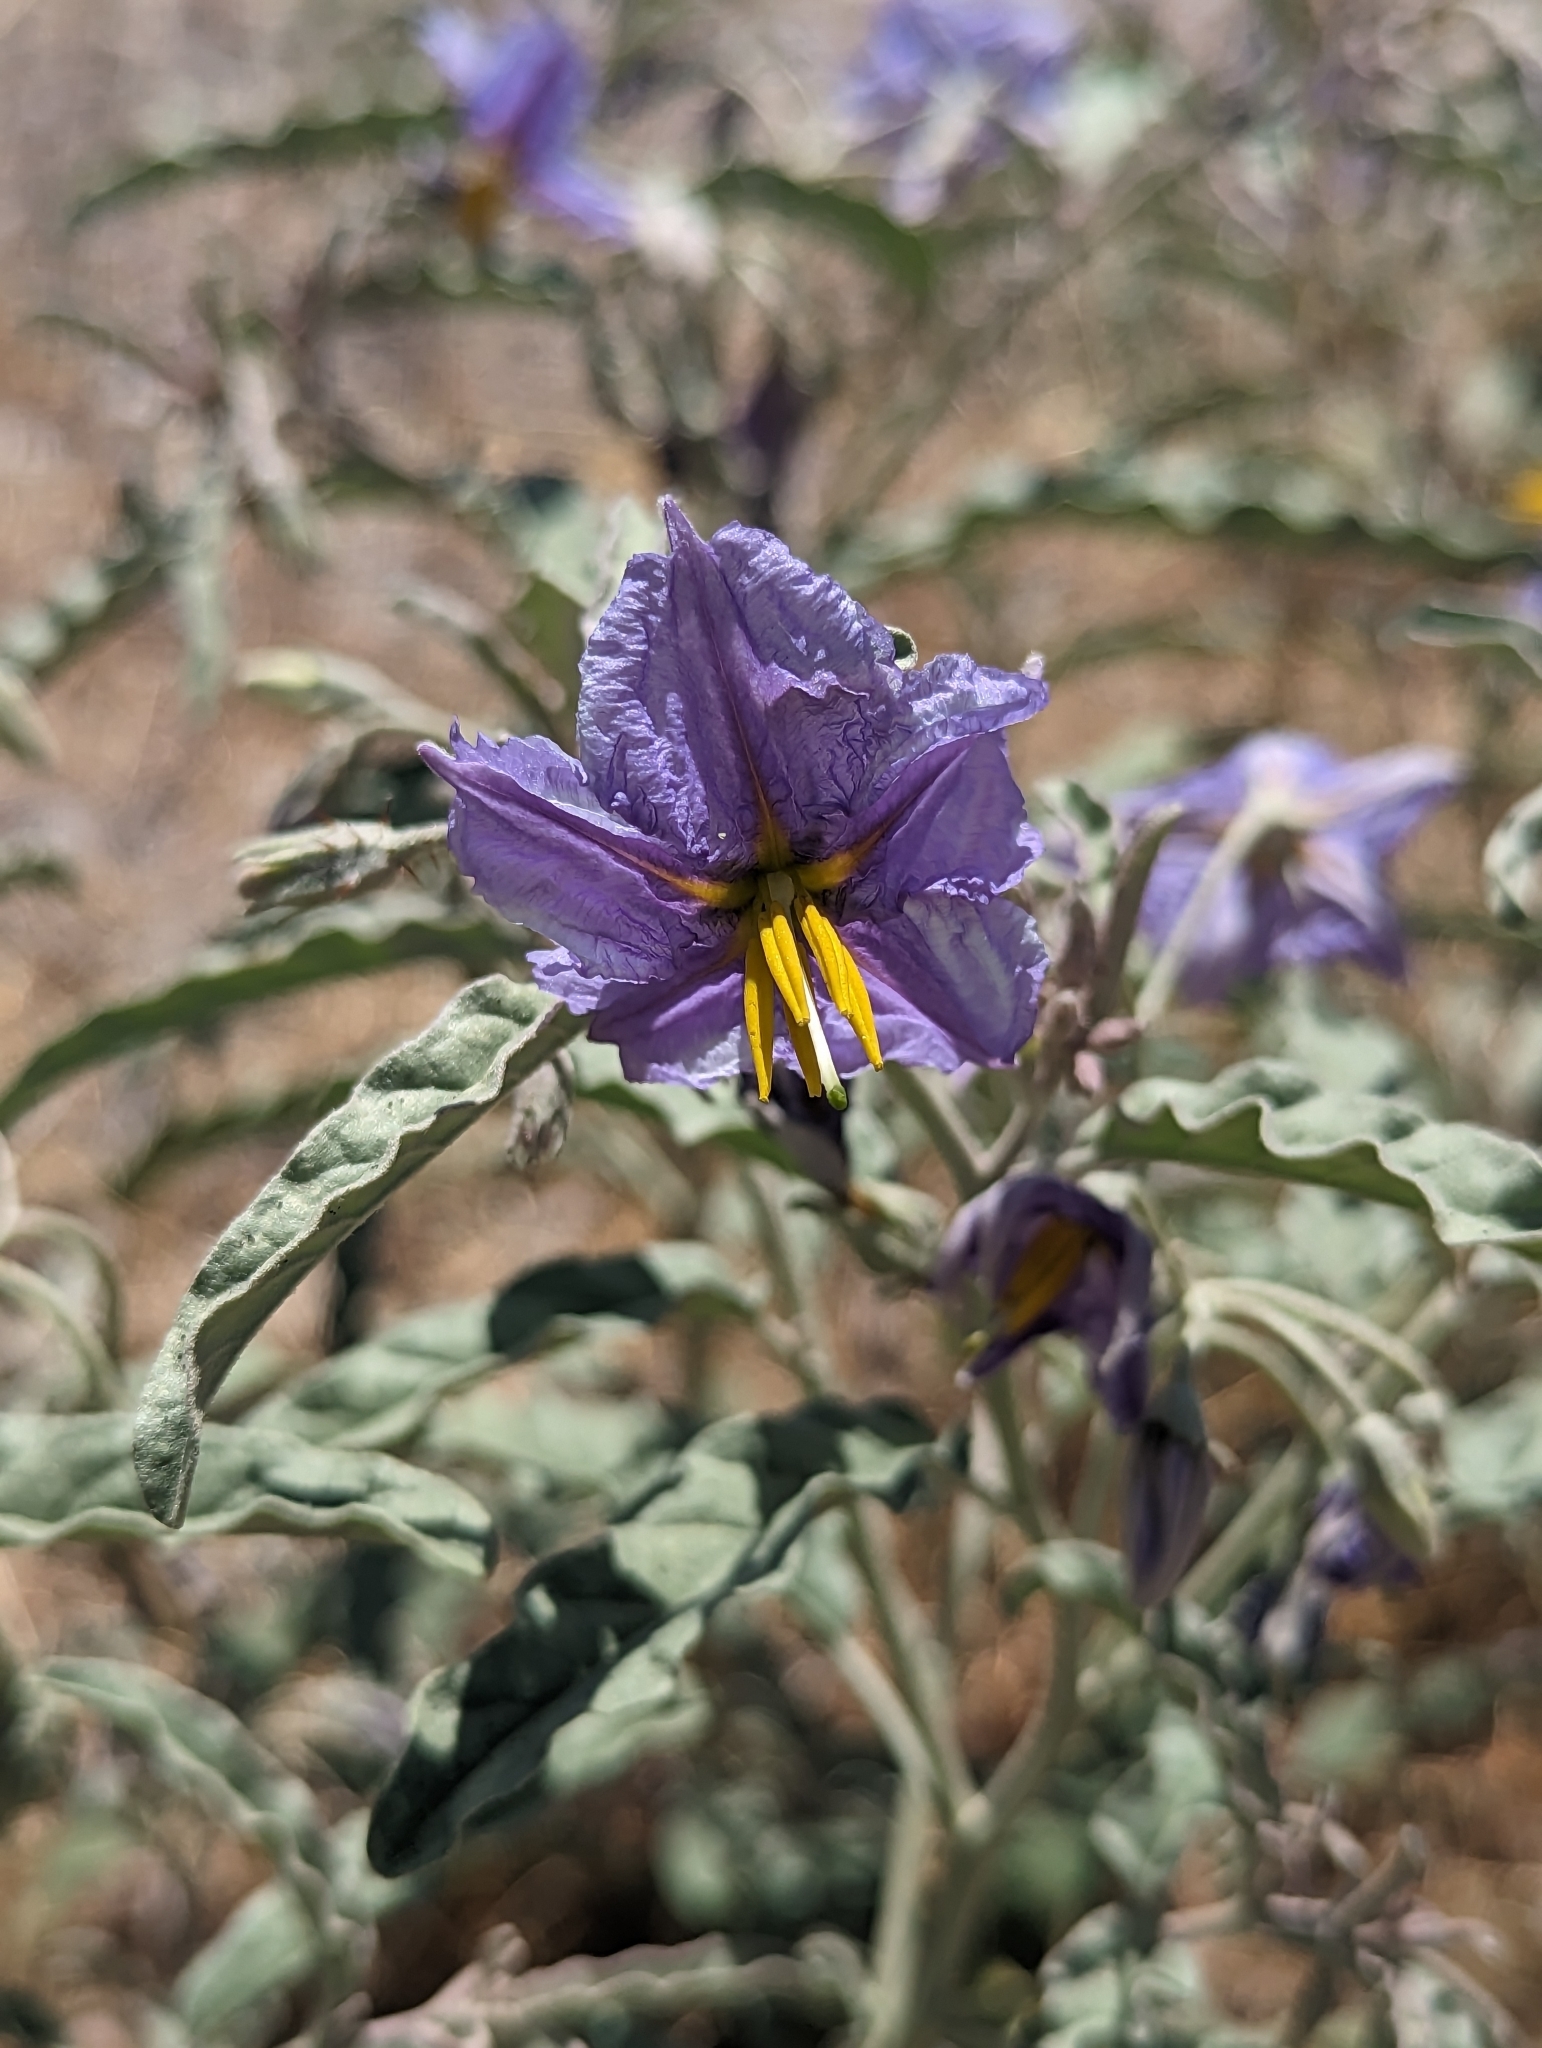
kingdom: Plantae
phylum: Tracheophyta
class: Magnoliopsida
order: Solanales
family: Solanaceae
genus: Solanum
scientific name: Solanum elaeagnifolium
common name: Silverleaf nightshade
